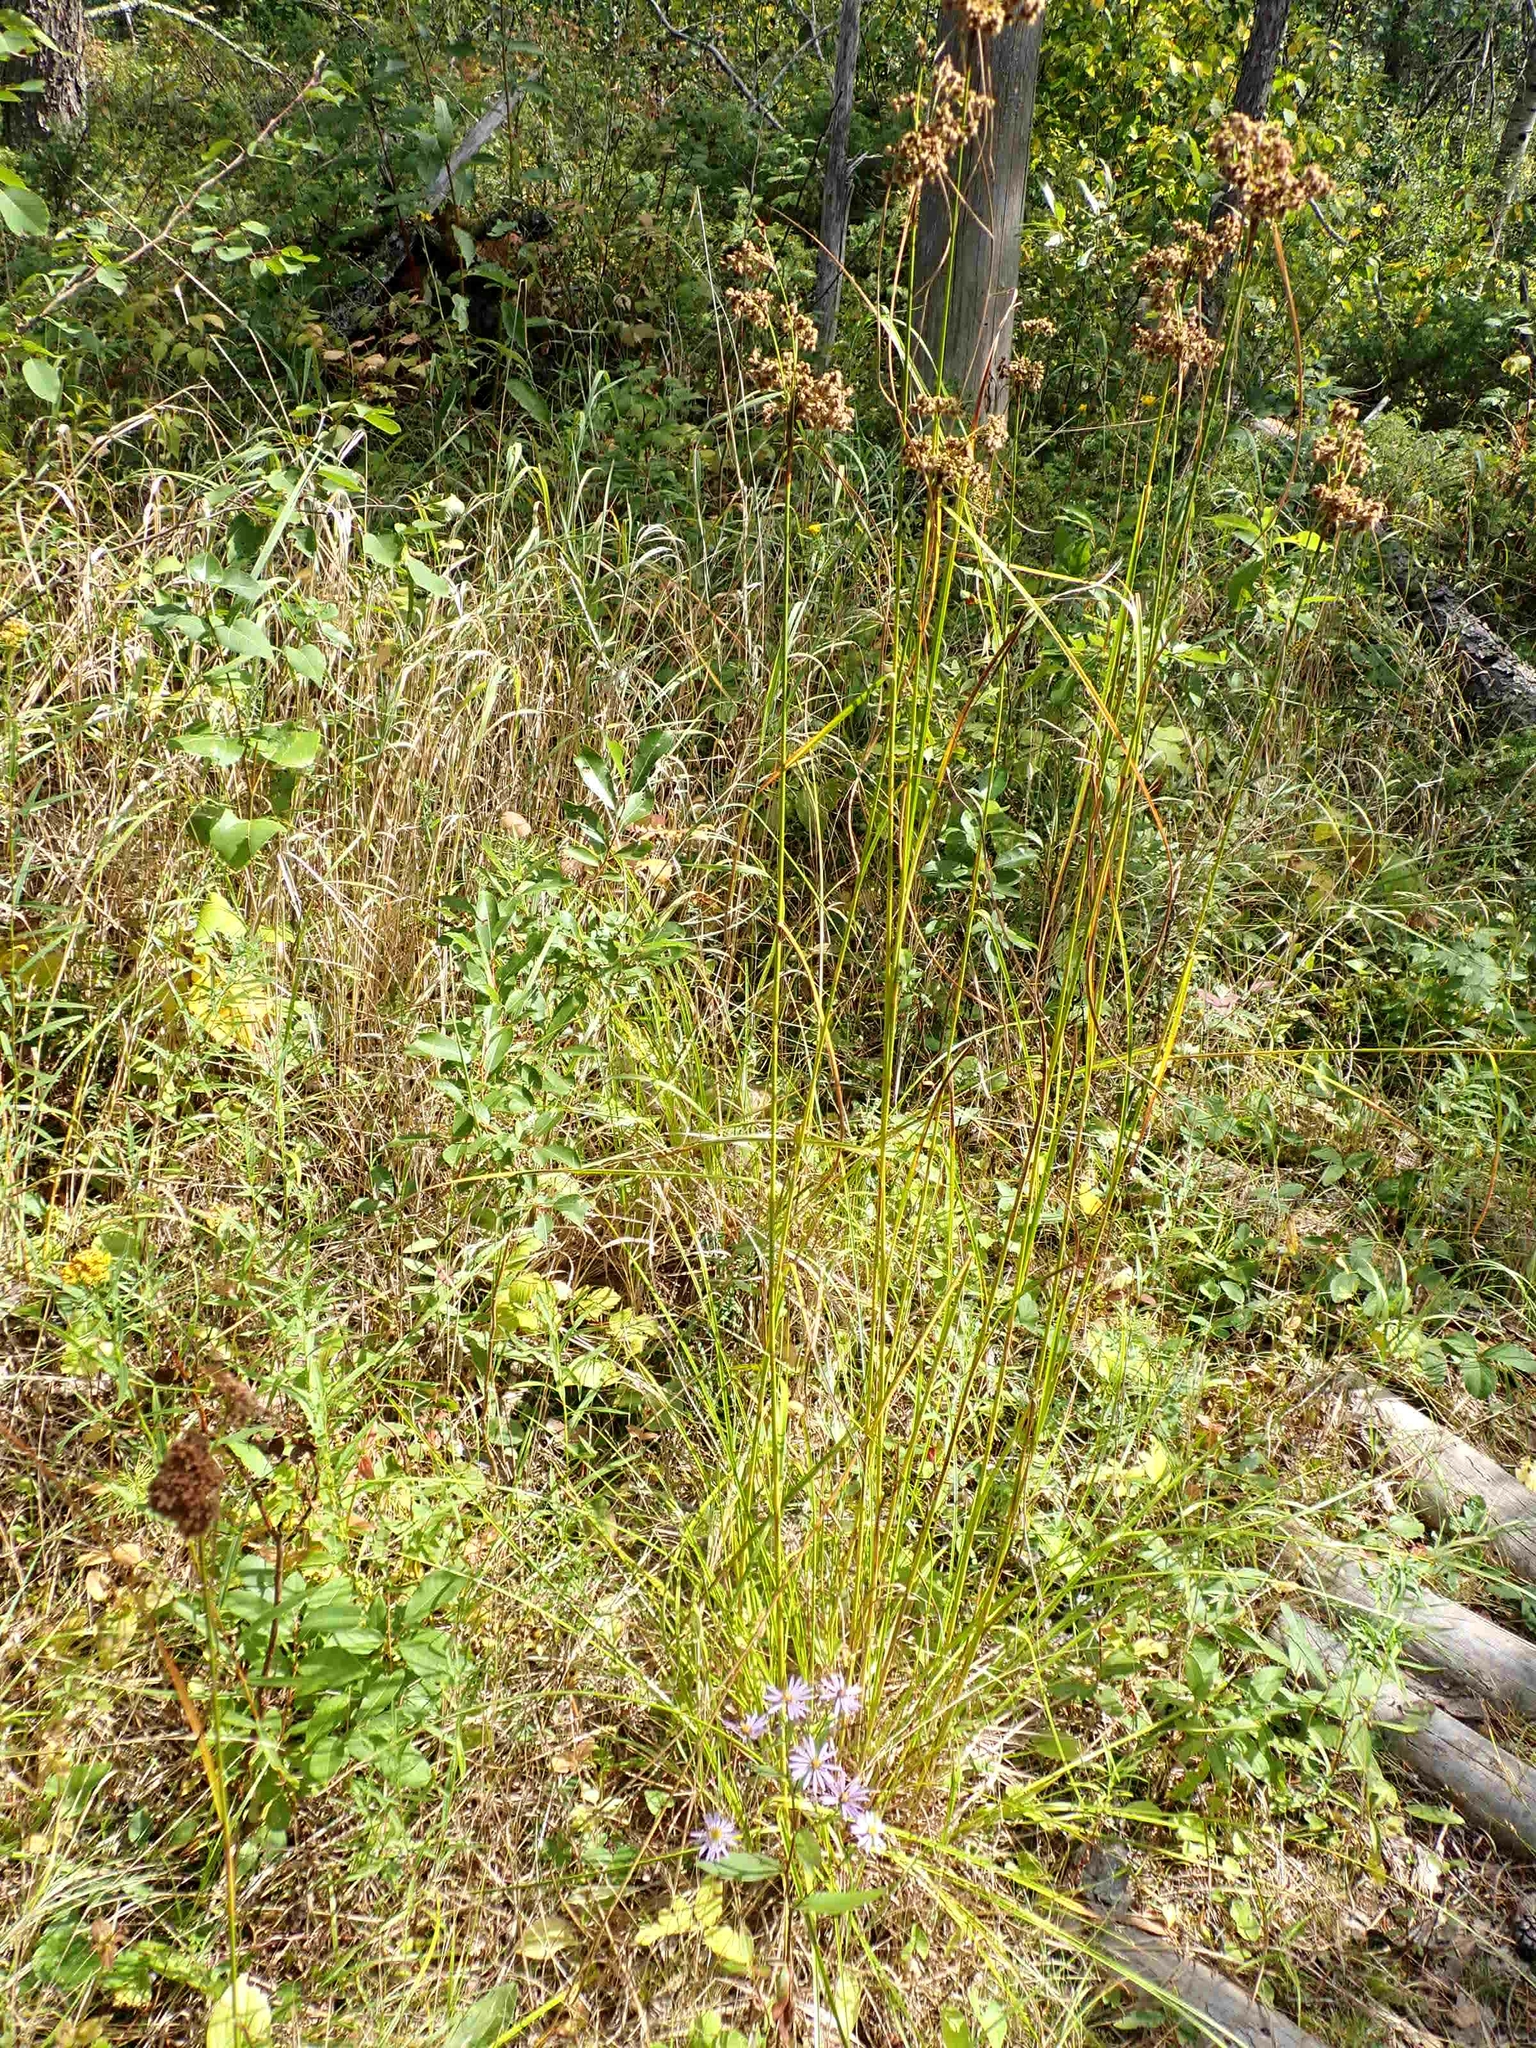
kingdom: Plantae
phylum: Tracheophyta
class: Liliopsida
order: Poales
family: Cyperaceae
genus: Scirpus
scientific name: Scirpus cyperinus
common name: Black-sheathed bulrush
